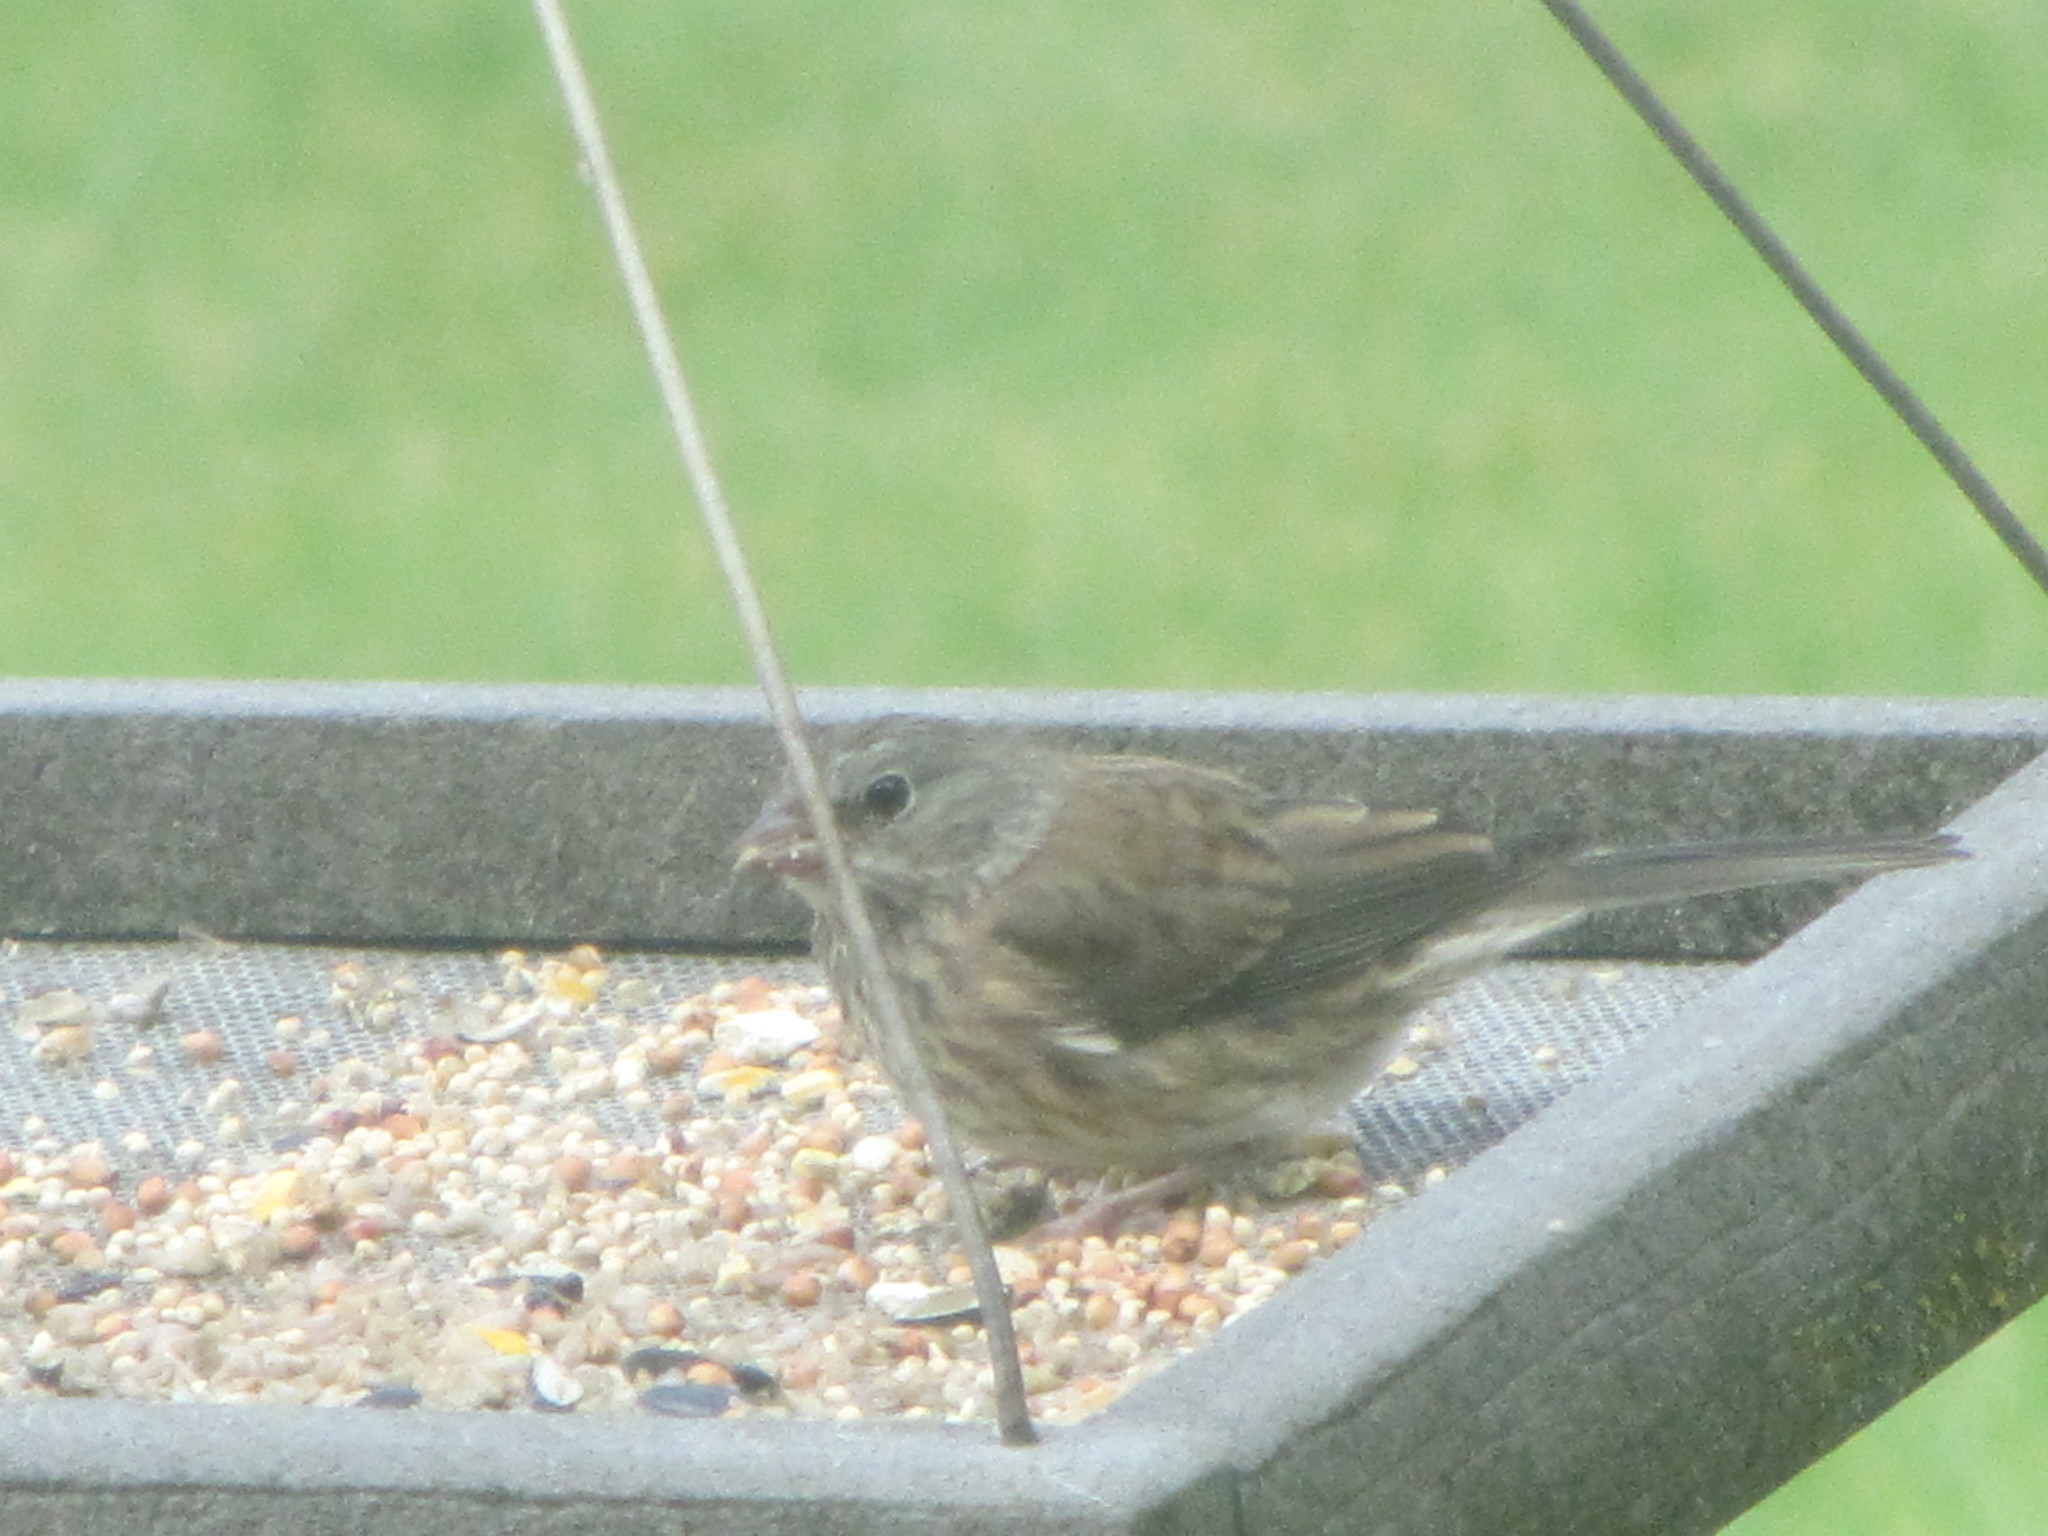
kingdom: Animalia
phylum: Chordata
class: Aves
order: Passeriformes
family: Passerellidae
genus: Junco
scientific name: Junco hyemalis
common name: Dark-eyed junco
